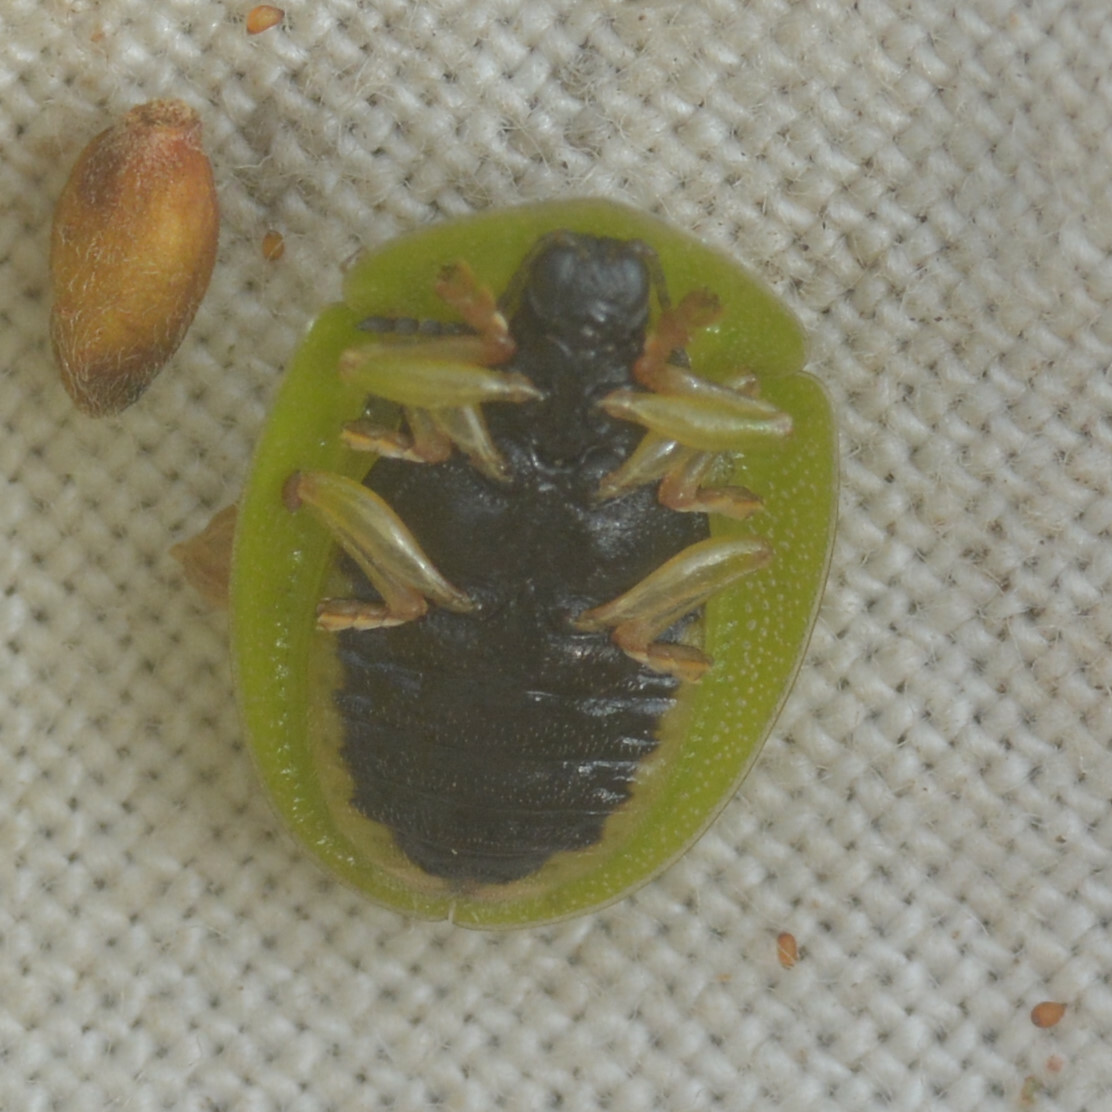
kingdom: Animalia
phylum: Arthropoda
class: Insecta
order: Coleoptera
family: Chrysomelidae
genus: Cassida
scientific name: Cassida viridis
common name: Green tortoise beetle
